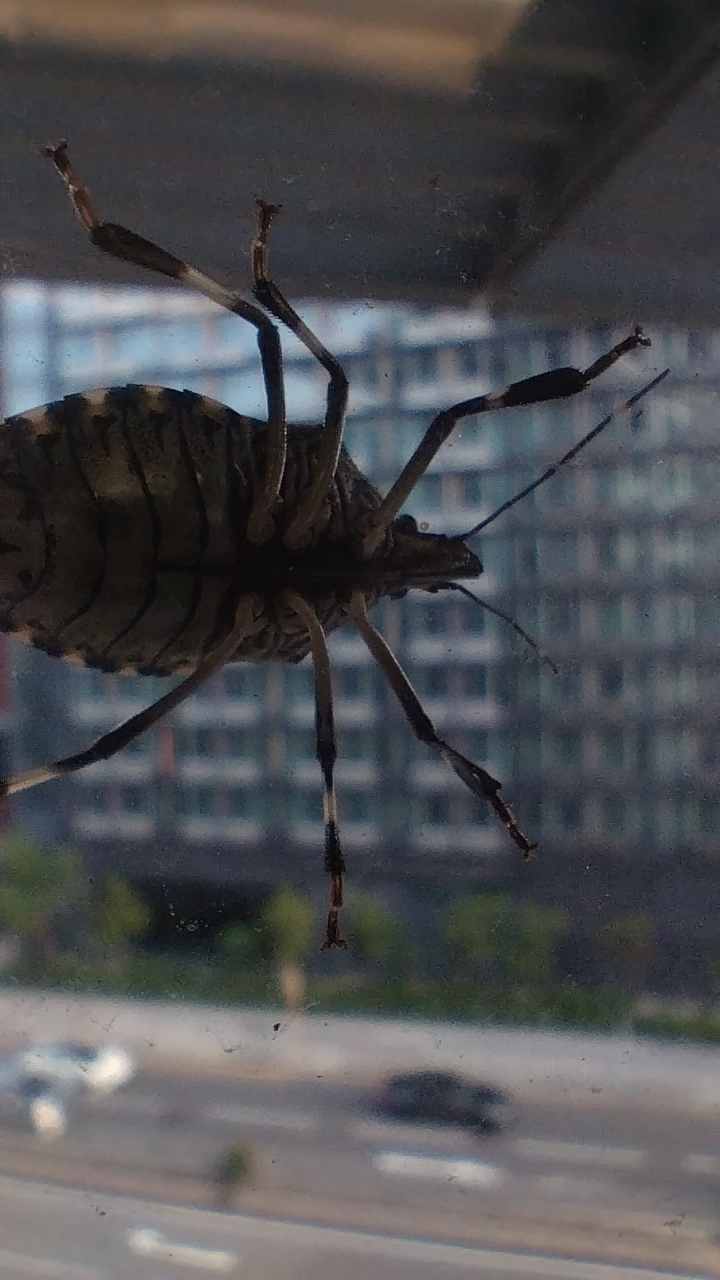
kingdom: Animalia
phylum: Arthropoda
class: Insecta
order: Hemiptera
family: Pentatomidae
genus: Erthesina
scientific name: Erthesina fullo
